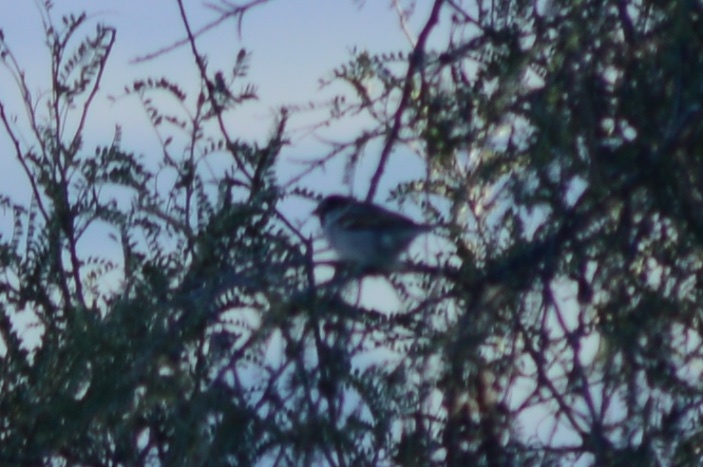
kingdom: Animalia
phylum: Chordata
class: Aves
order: Passeriformes
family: Passeridae
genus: Passer
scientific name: Passer domesticus
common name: House sparrow
